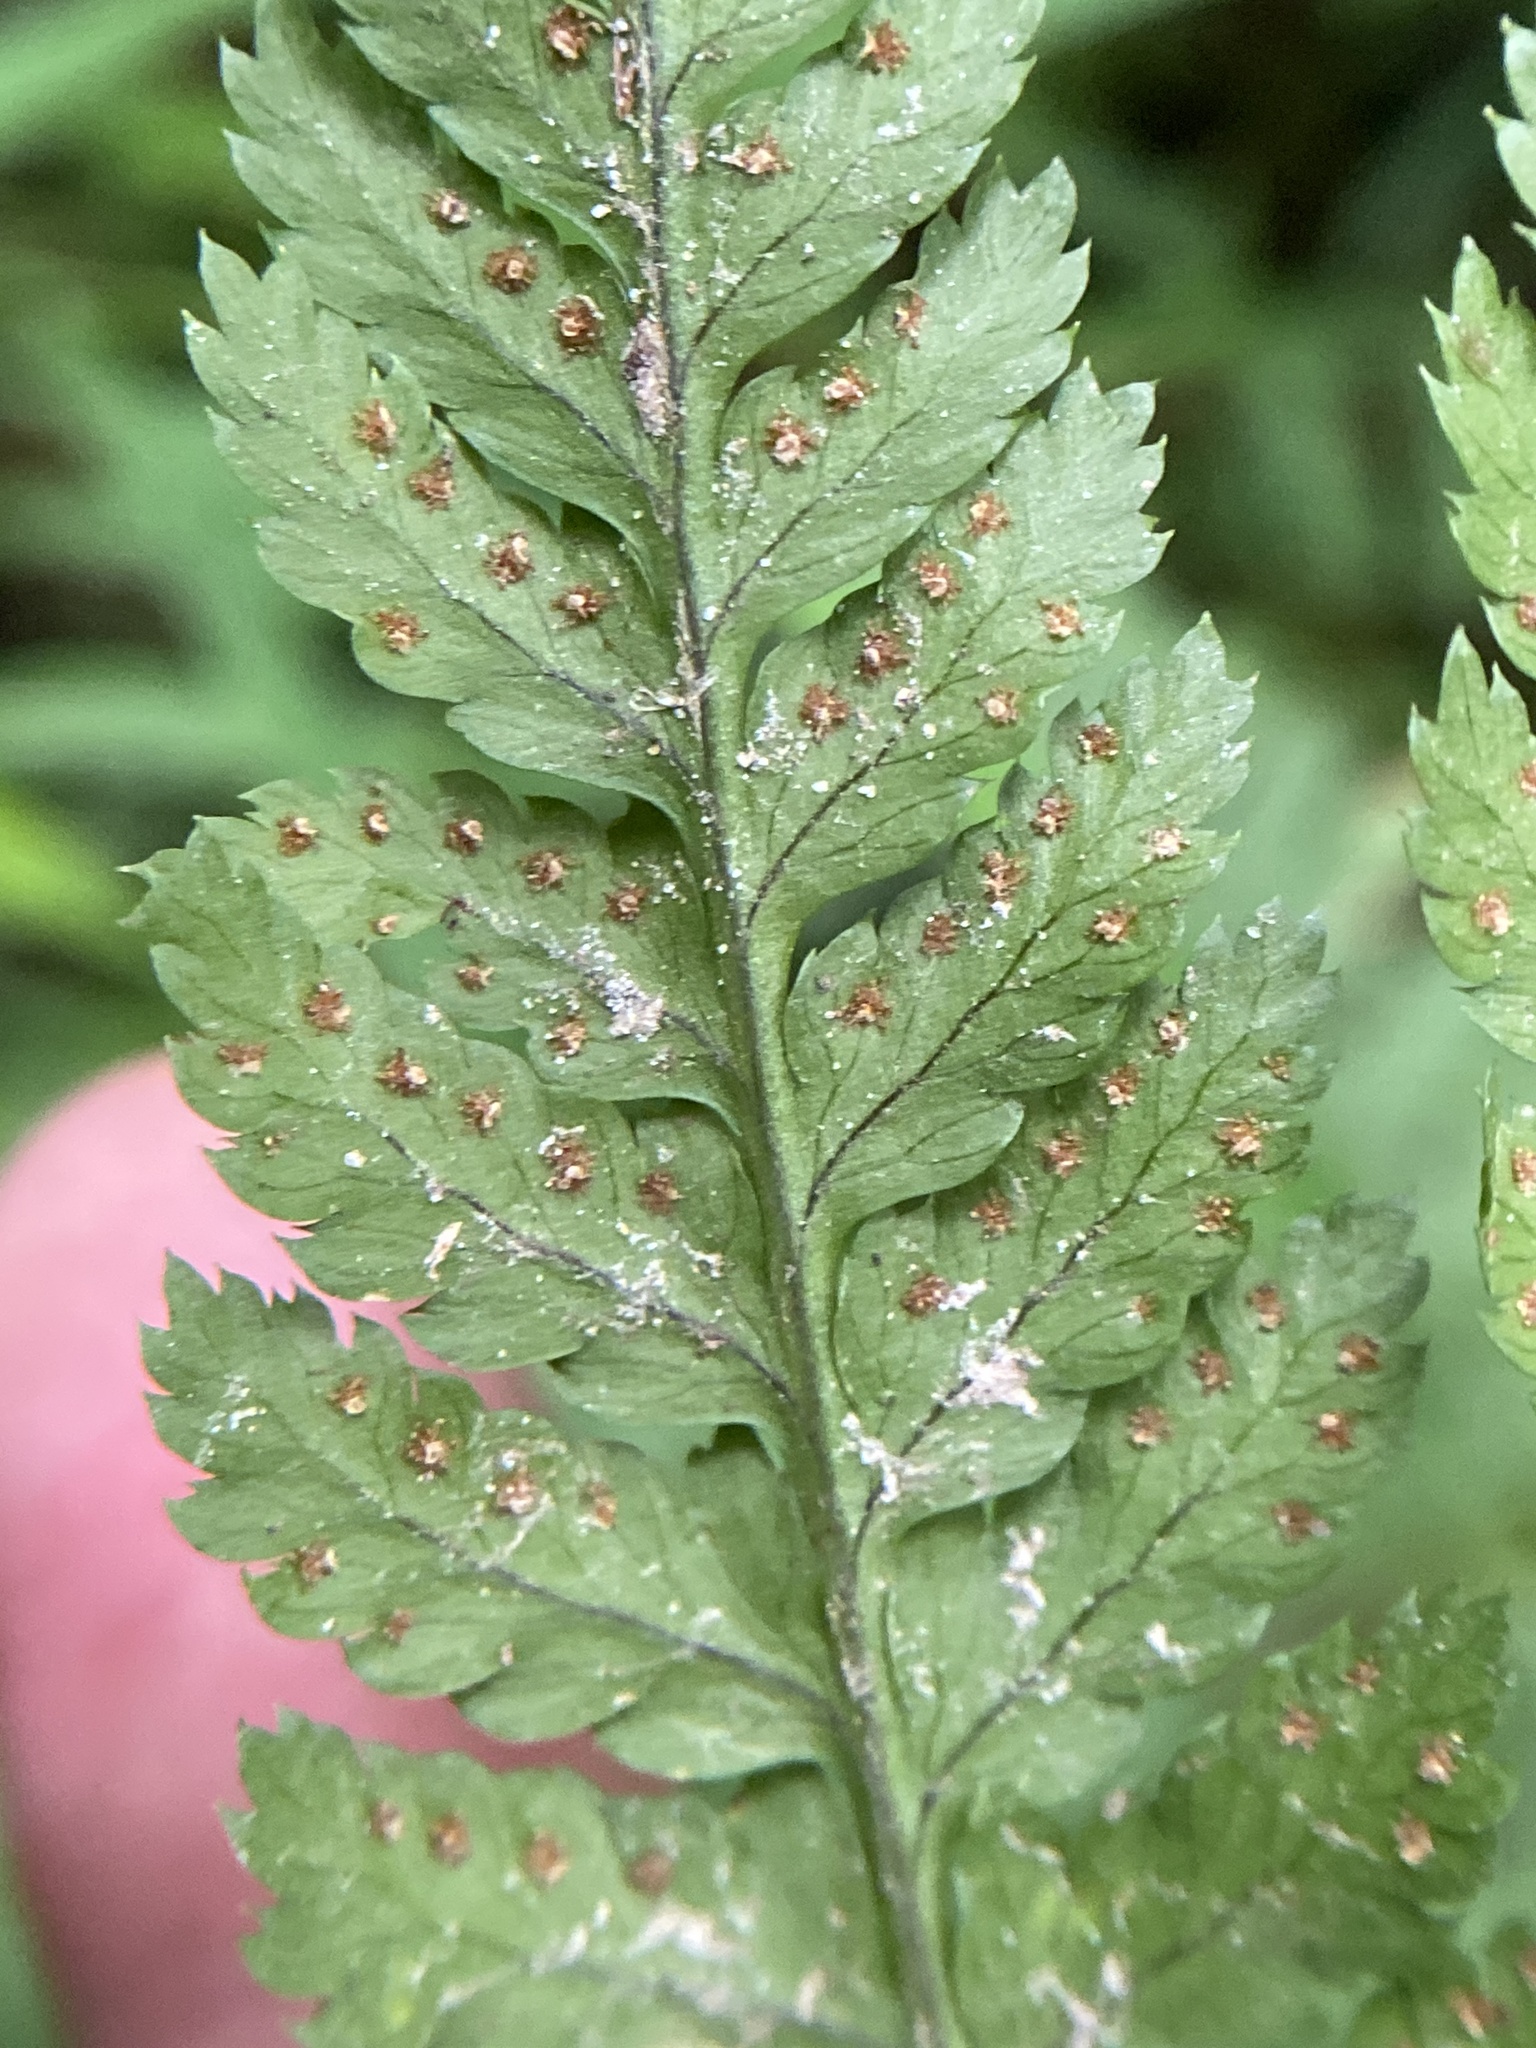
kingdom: Plantae
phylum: Tracheophyta
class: Polypodiopsida
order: Polypodiales
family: Dryopteridaceae
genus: Dryopteris
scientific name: Dryopteris intermedia
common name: Evergreen wood fern
